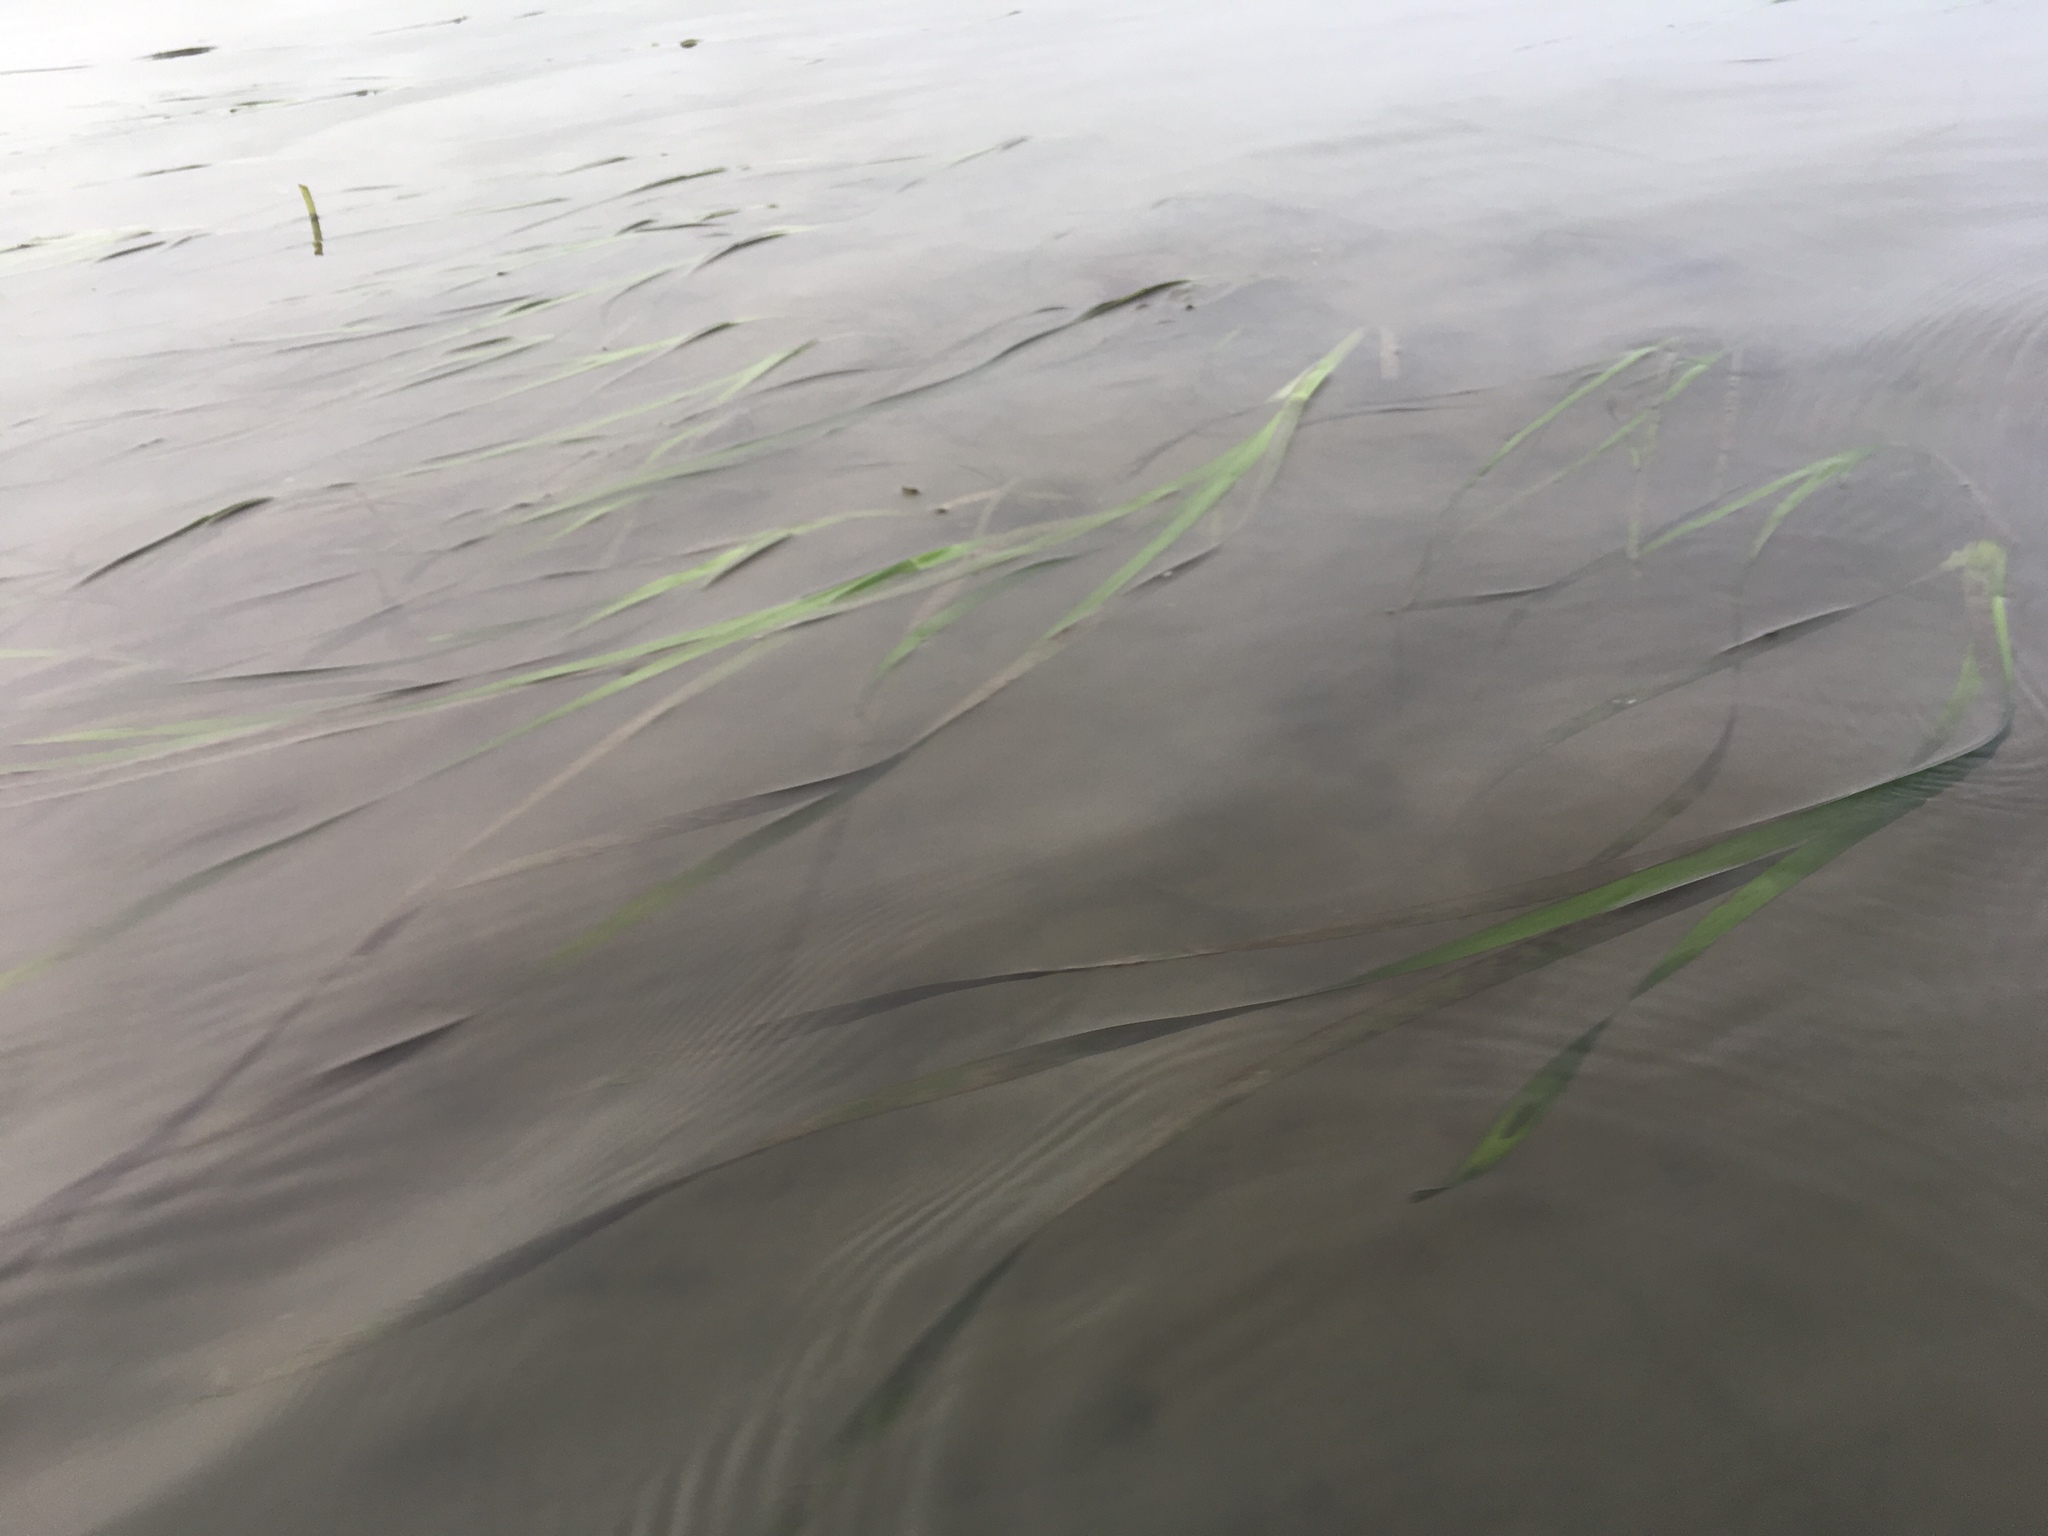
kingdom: Plantae
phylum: Tracheophyta
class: Liliopsida
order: Alismatales
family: Zosteraceae
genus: Zostera
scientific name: Zostera marina
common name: Eelgrass
